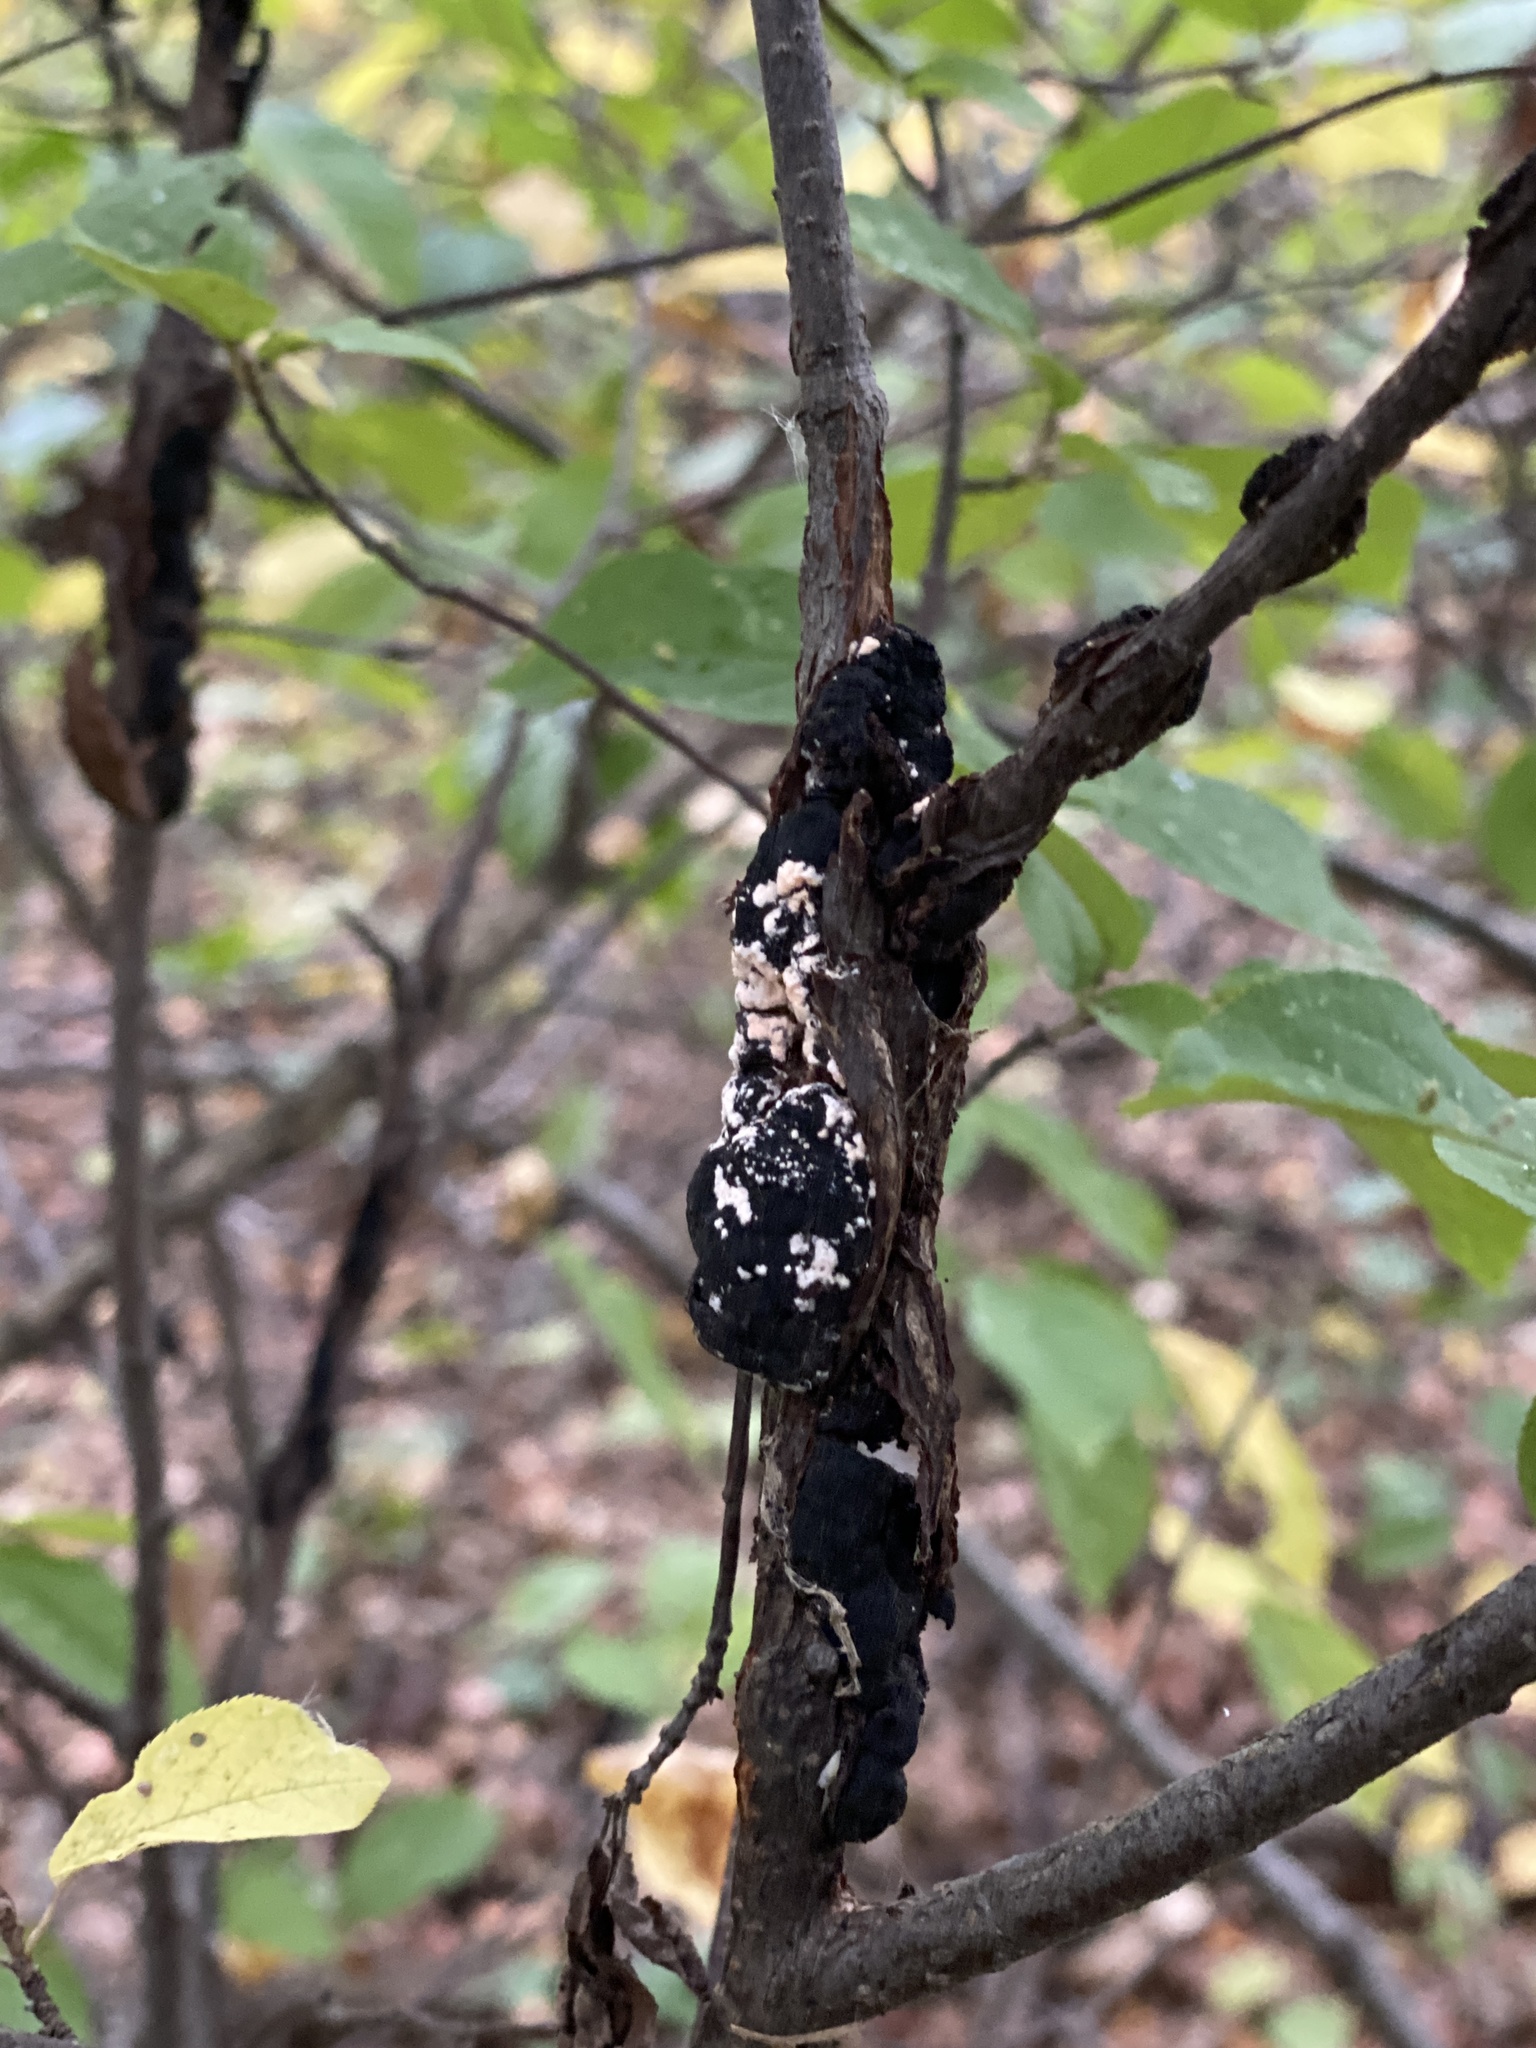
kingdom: Fungi
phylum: Ascomycota
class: Dothideomycetes
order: Venturiales
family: Venturiaceae
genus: Apiosporina
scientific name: Apiosporina morbosa
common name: Black knot
